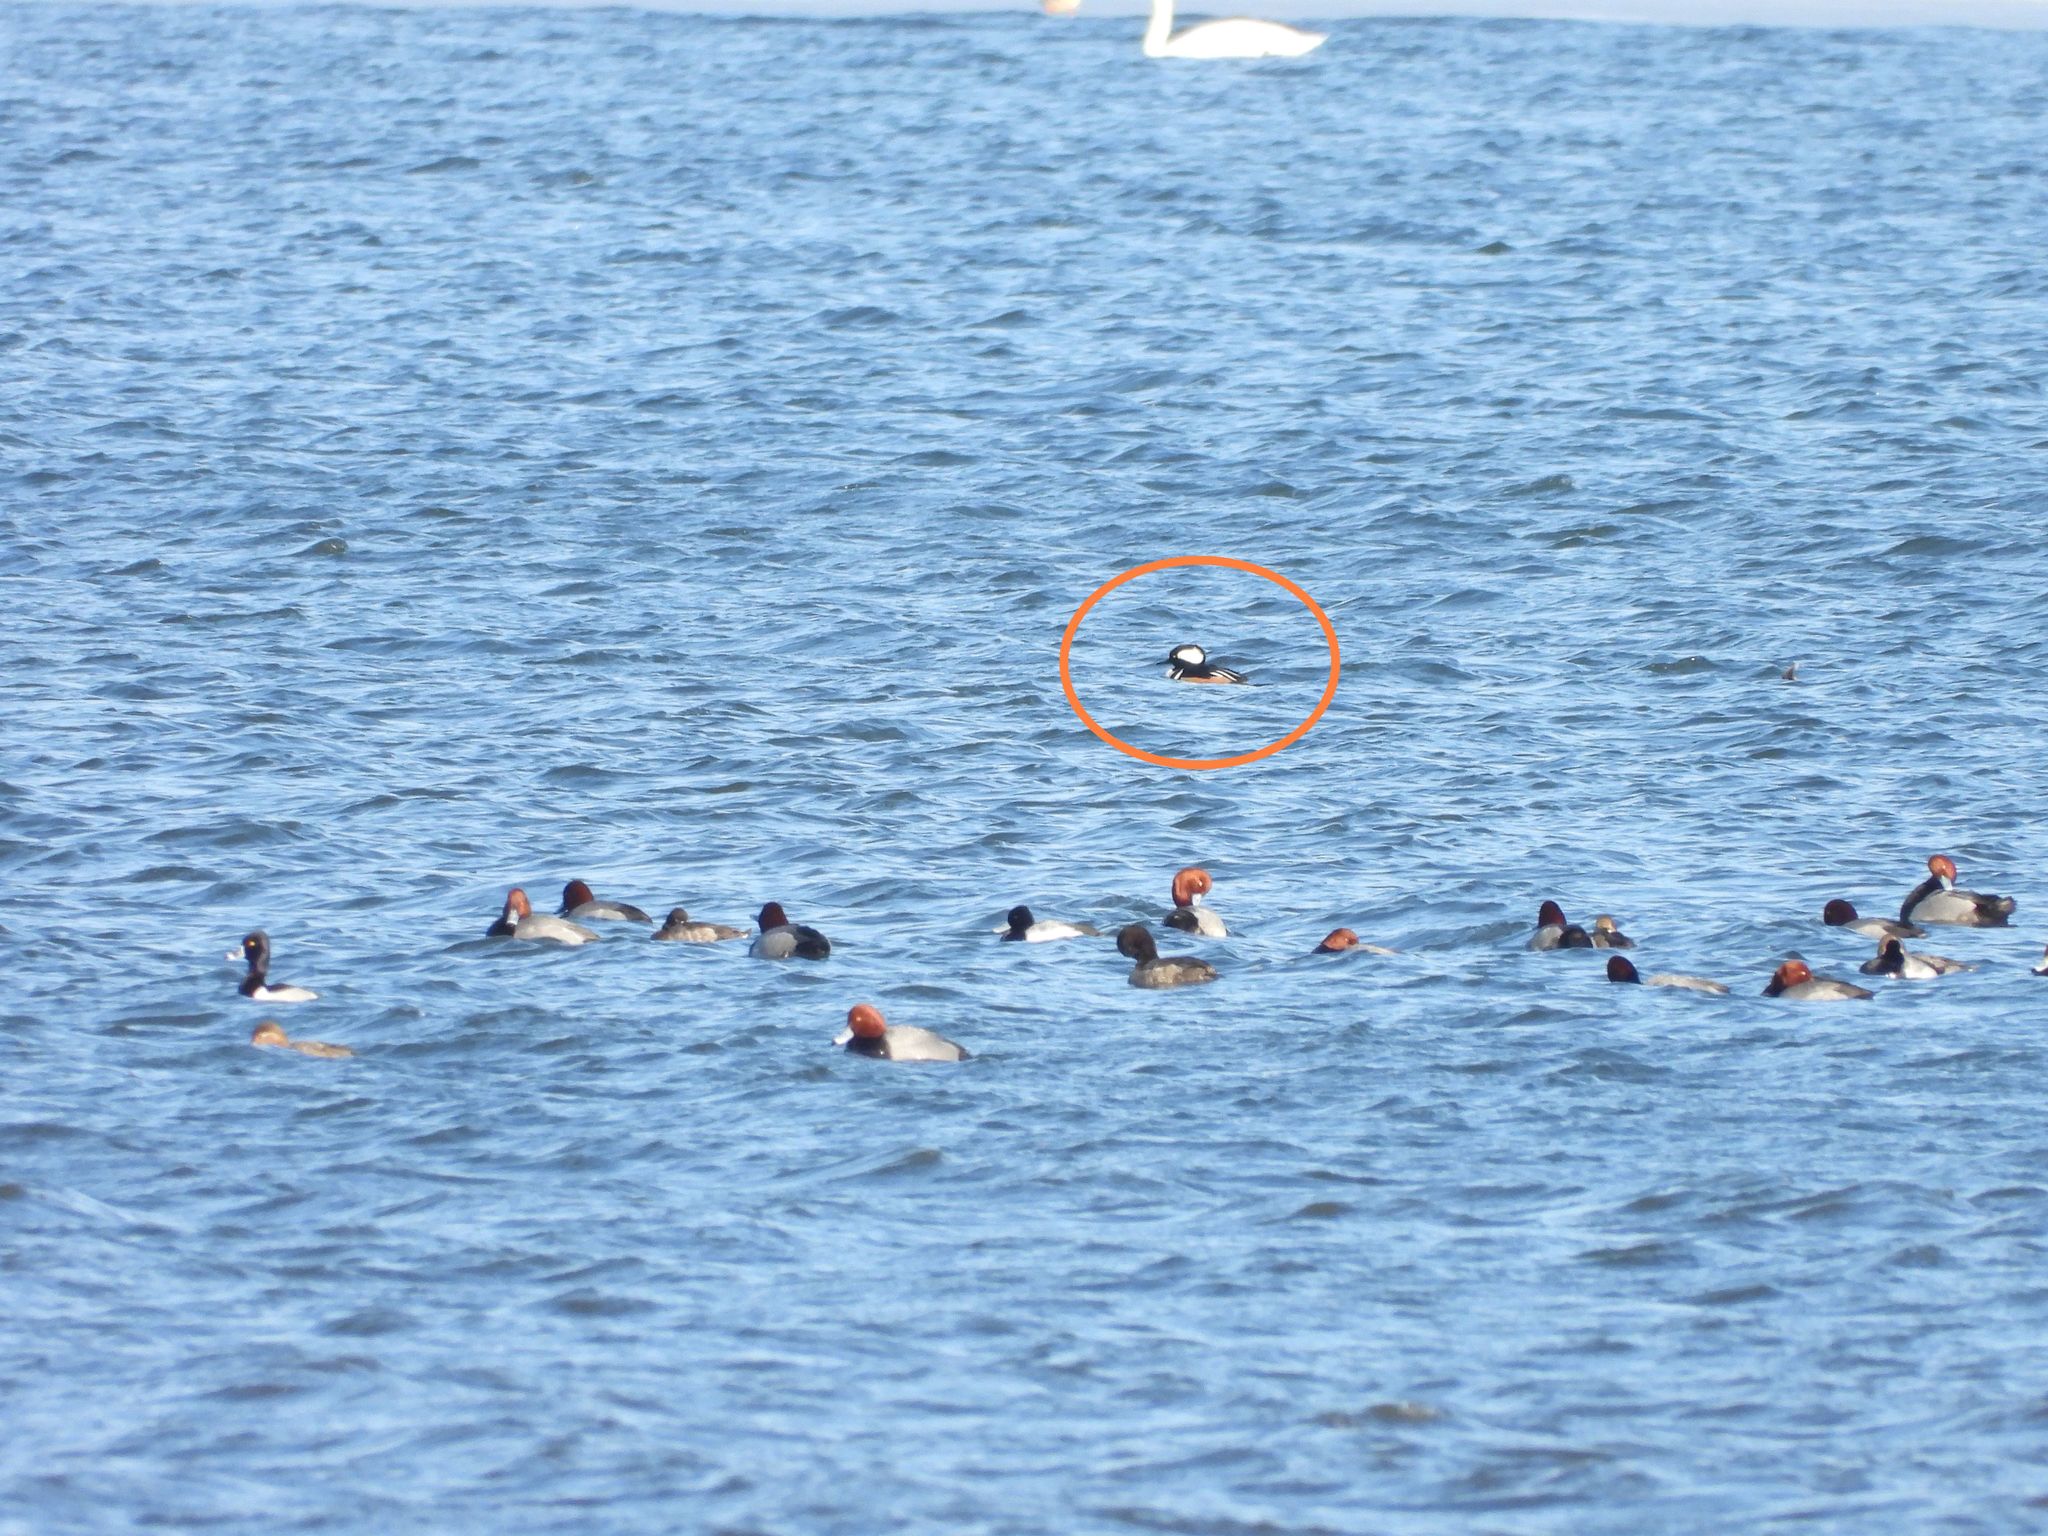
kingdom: Animalia
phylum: Chordata
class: Aves
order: Anseriformes
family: Anatidae
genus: Lophodytes
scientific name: Lophodytes cucullatus
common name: Hooded merganser
